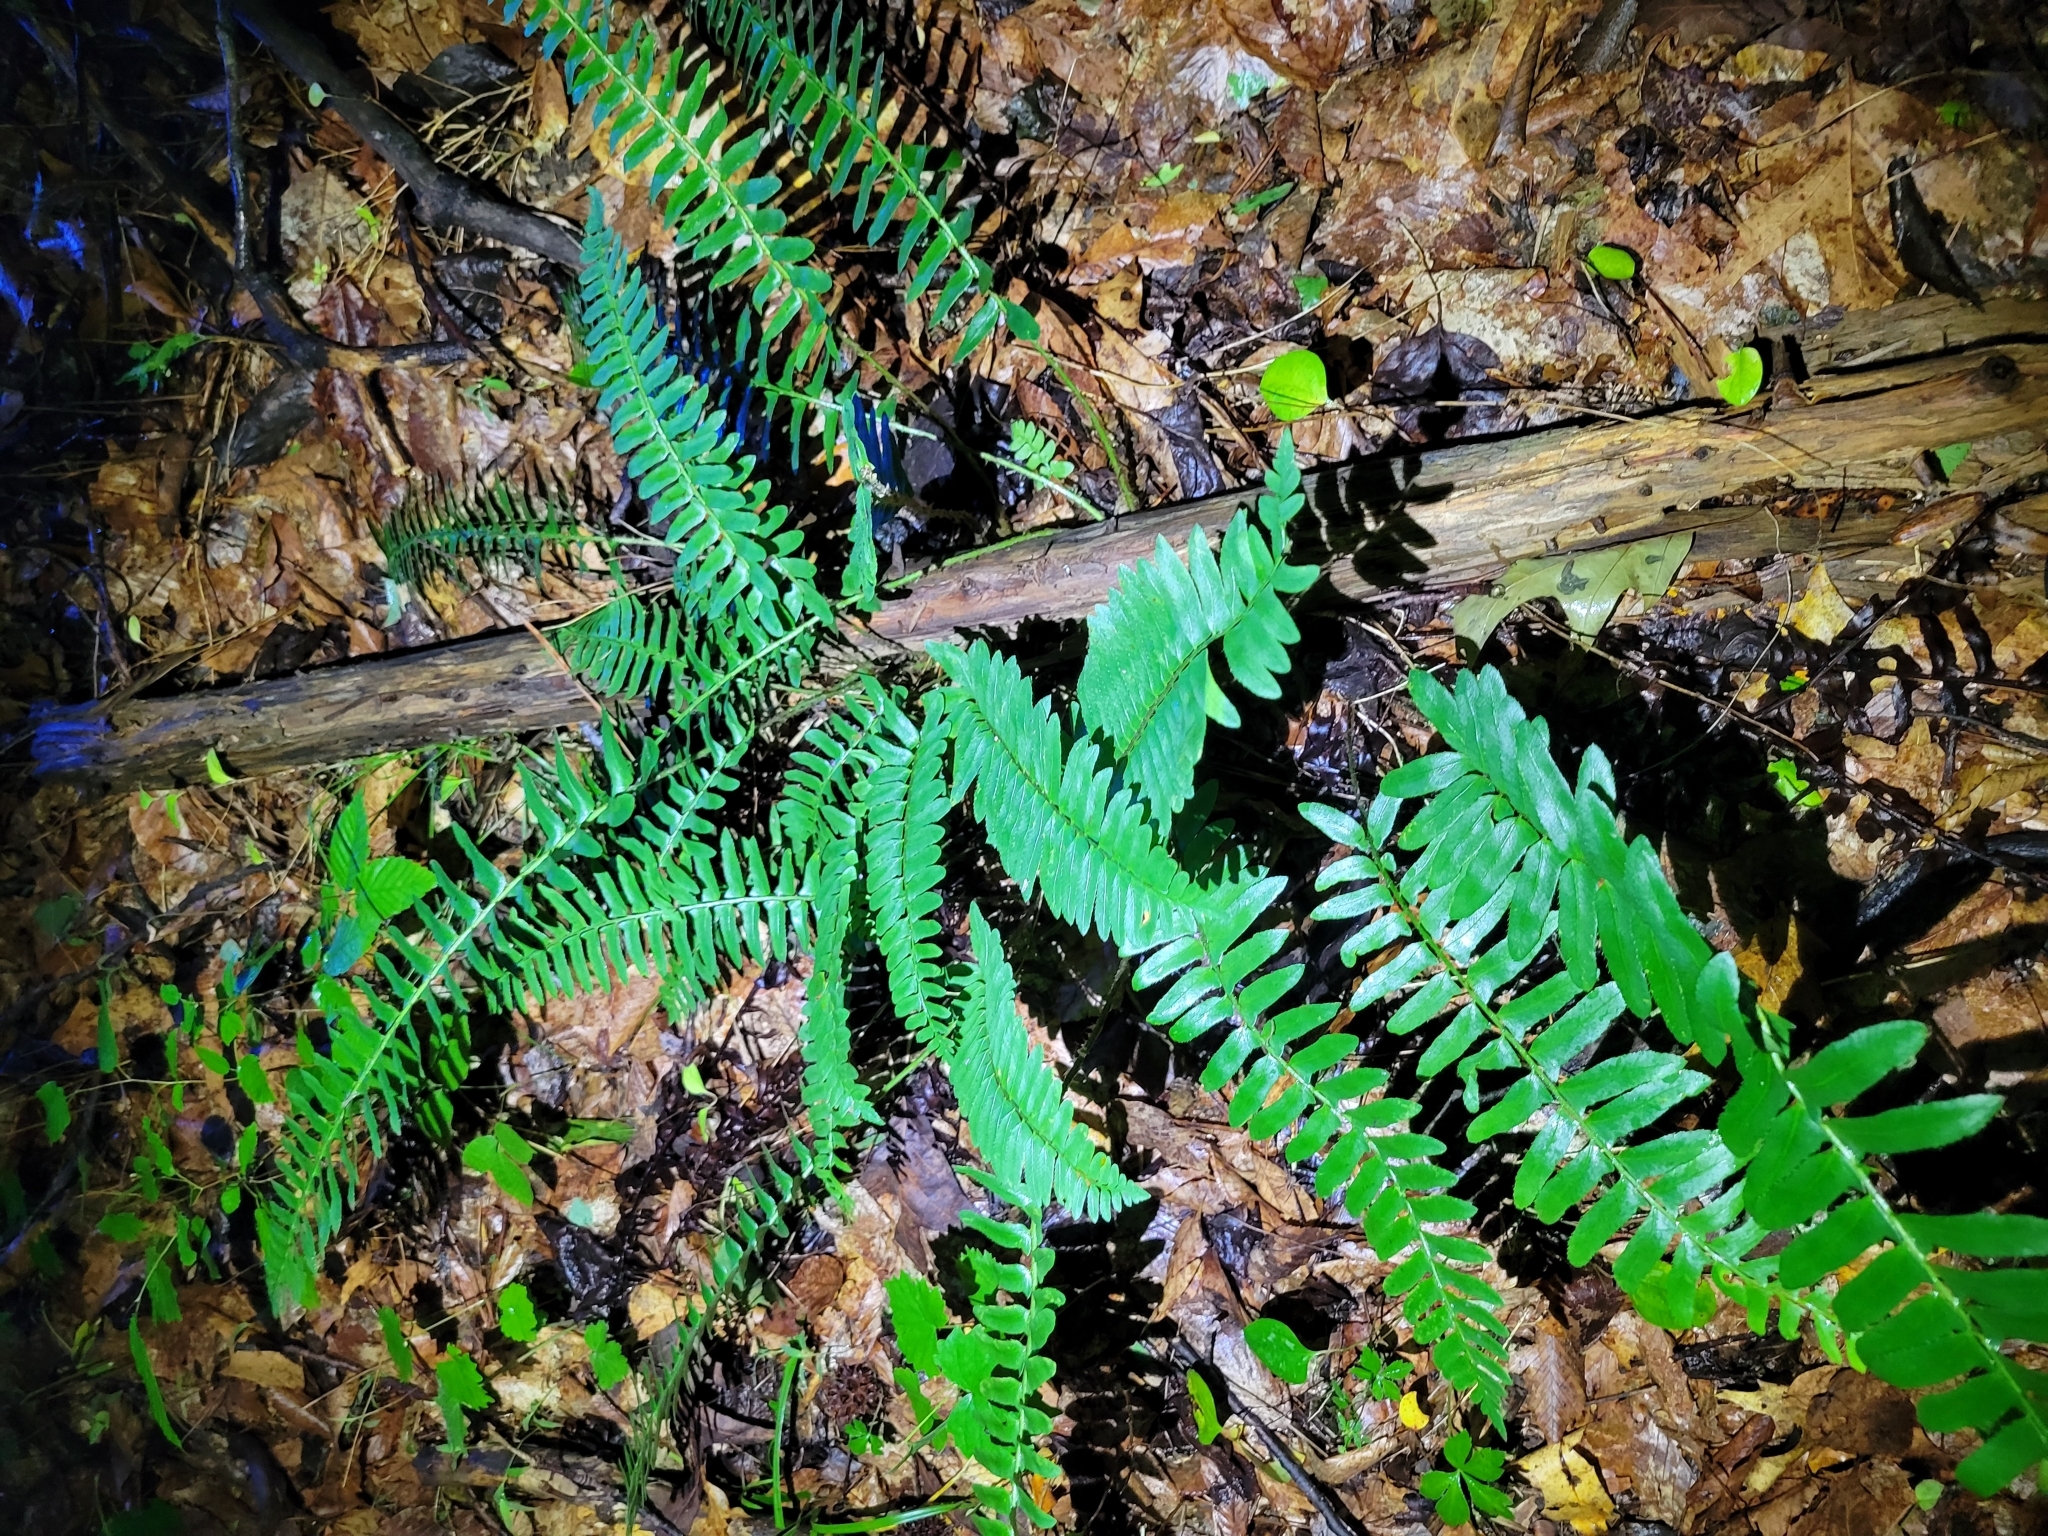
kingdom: Plantae
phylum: Tracheophyta
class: Polypodiopsida
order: Polypodiales
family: Dryopteridaceae
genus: Polystichum
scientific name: Polystichum acrostichoides
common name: Christmas fern
